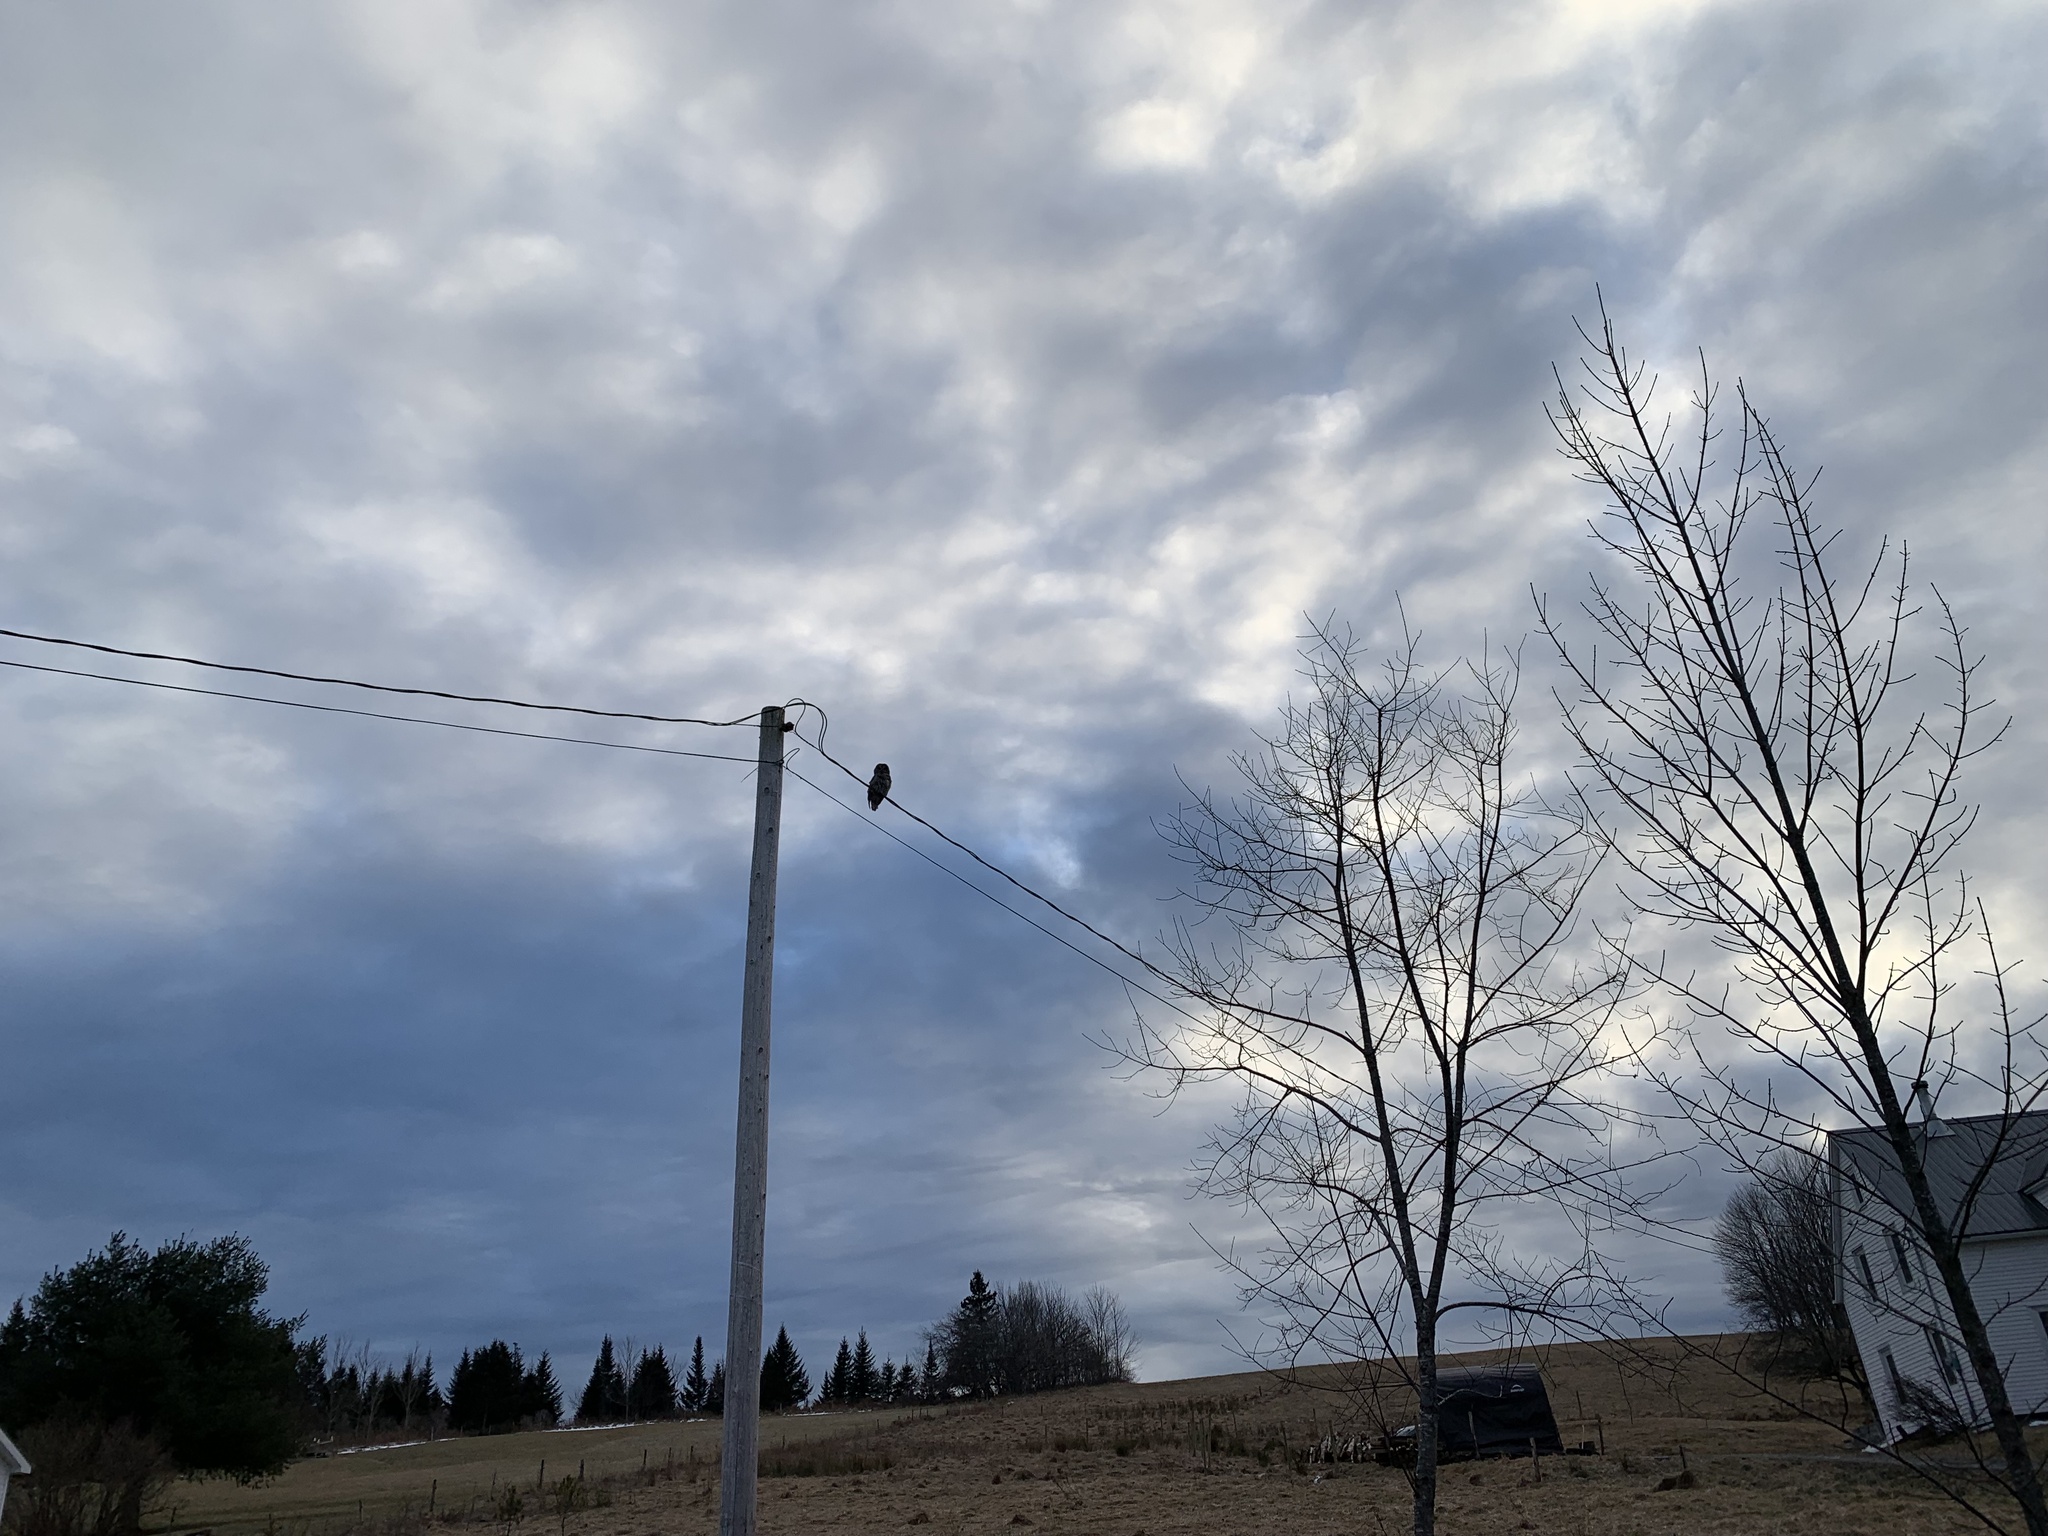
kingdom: Animalia
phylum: Chordata
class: Aves
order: Strigiformes
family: Strigidae
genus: Strix
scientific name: Strix varia
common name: Barred owl
